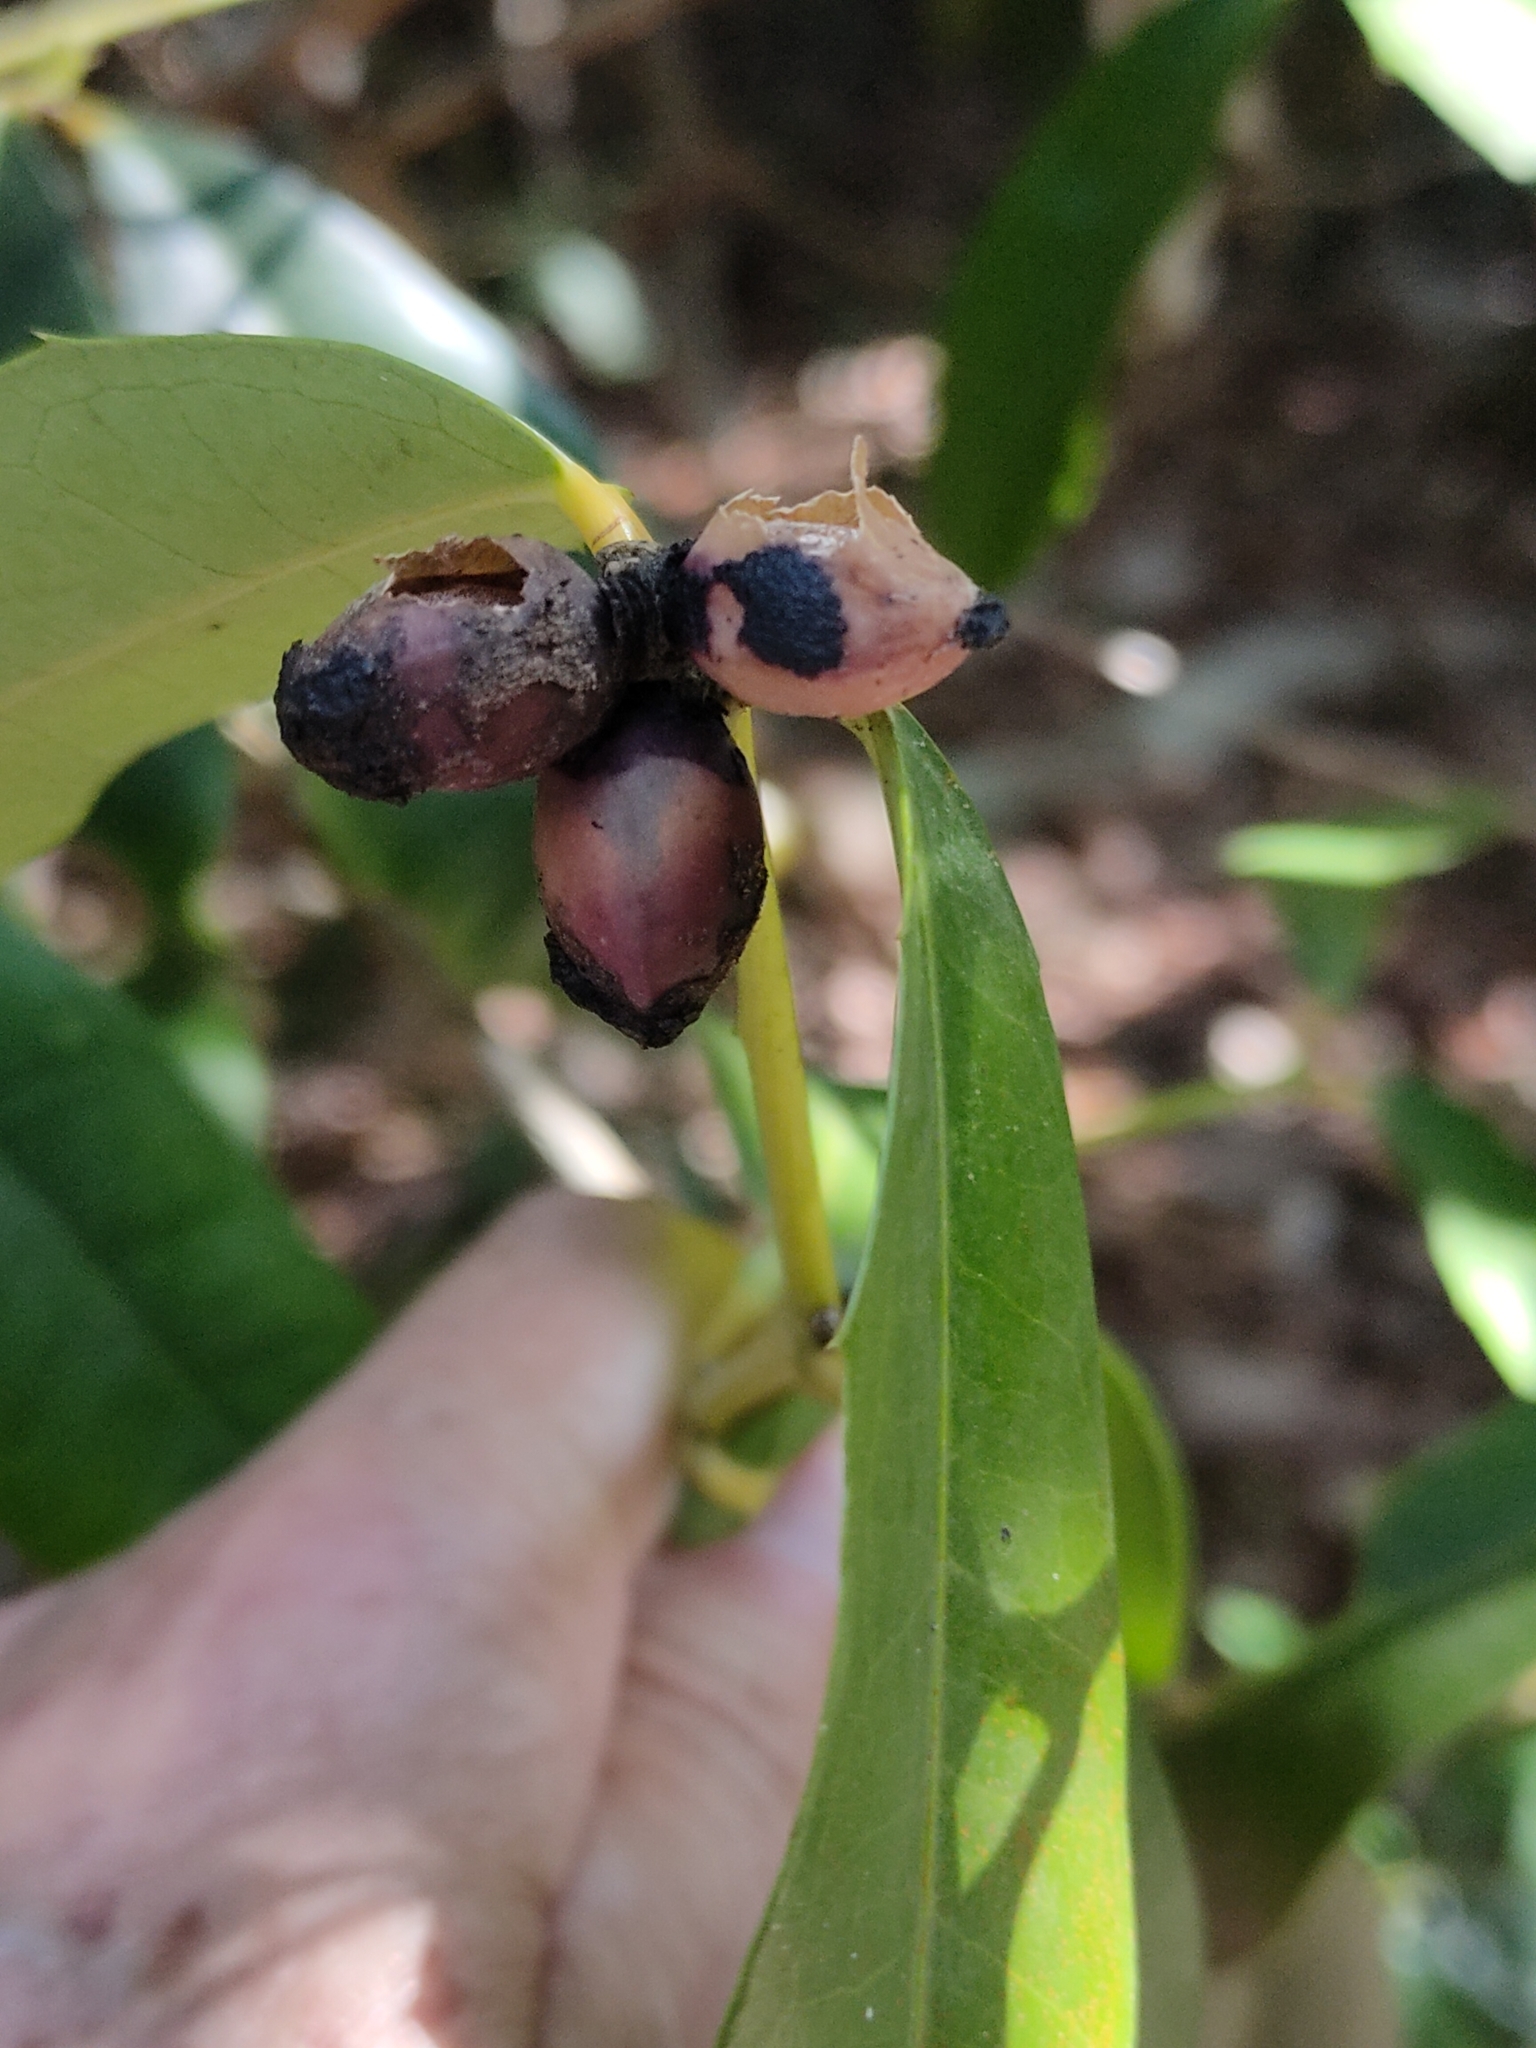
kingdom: Plantae
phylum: Tracheophyta
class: Magnoliopsida
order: Laurales
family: Monimiaceae
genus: Wilkiea
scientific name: Wilkiea macrophylla
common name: Large-leaved wilkiea
